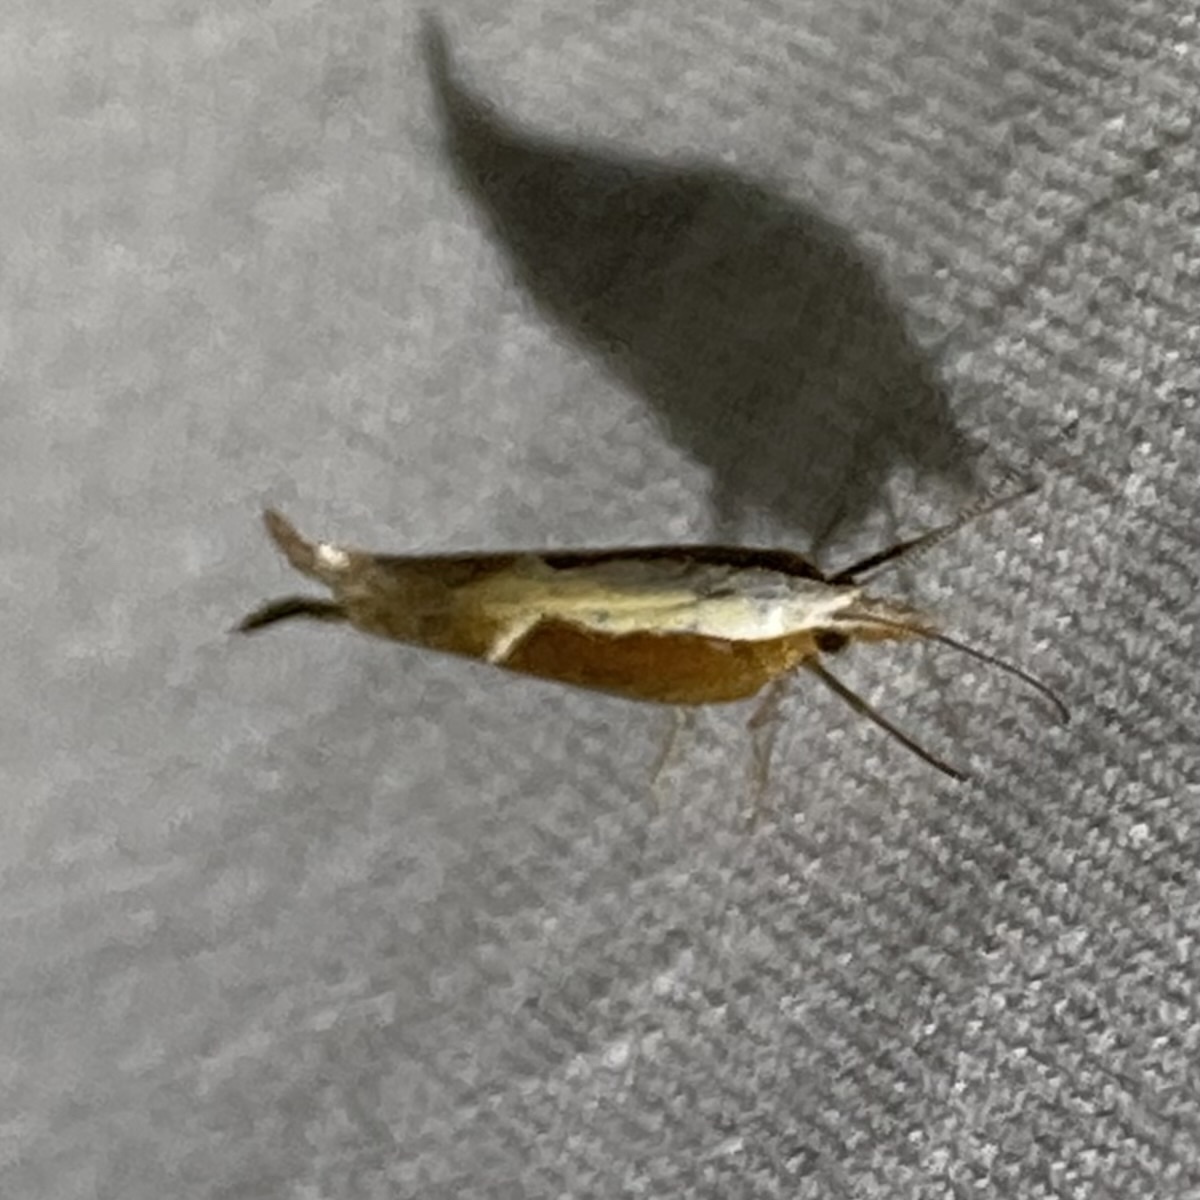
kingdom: Animalia
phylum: Arthropoda
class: Insecta
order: Lepidoptera
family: Ypsolophidae
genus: Ypsolopha
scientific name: Ypsolopha dentella
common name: Honeysuckle moth
